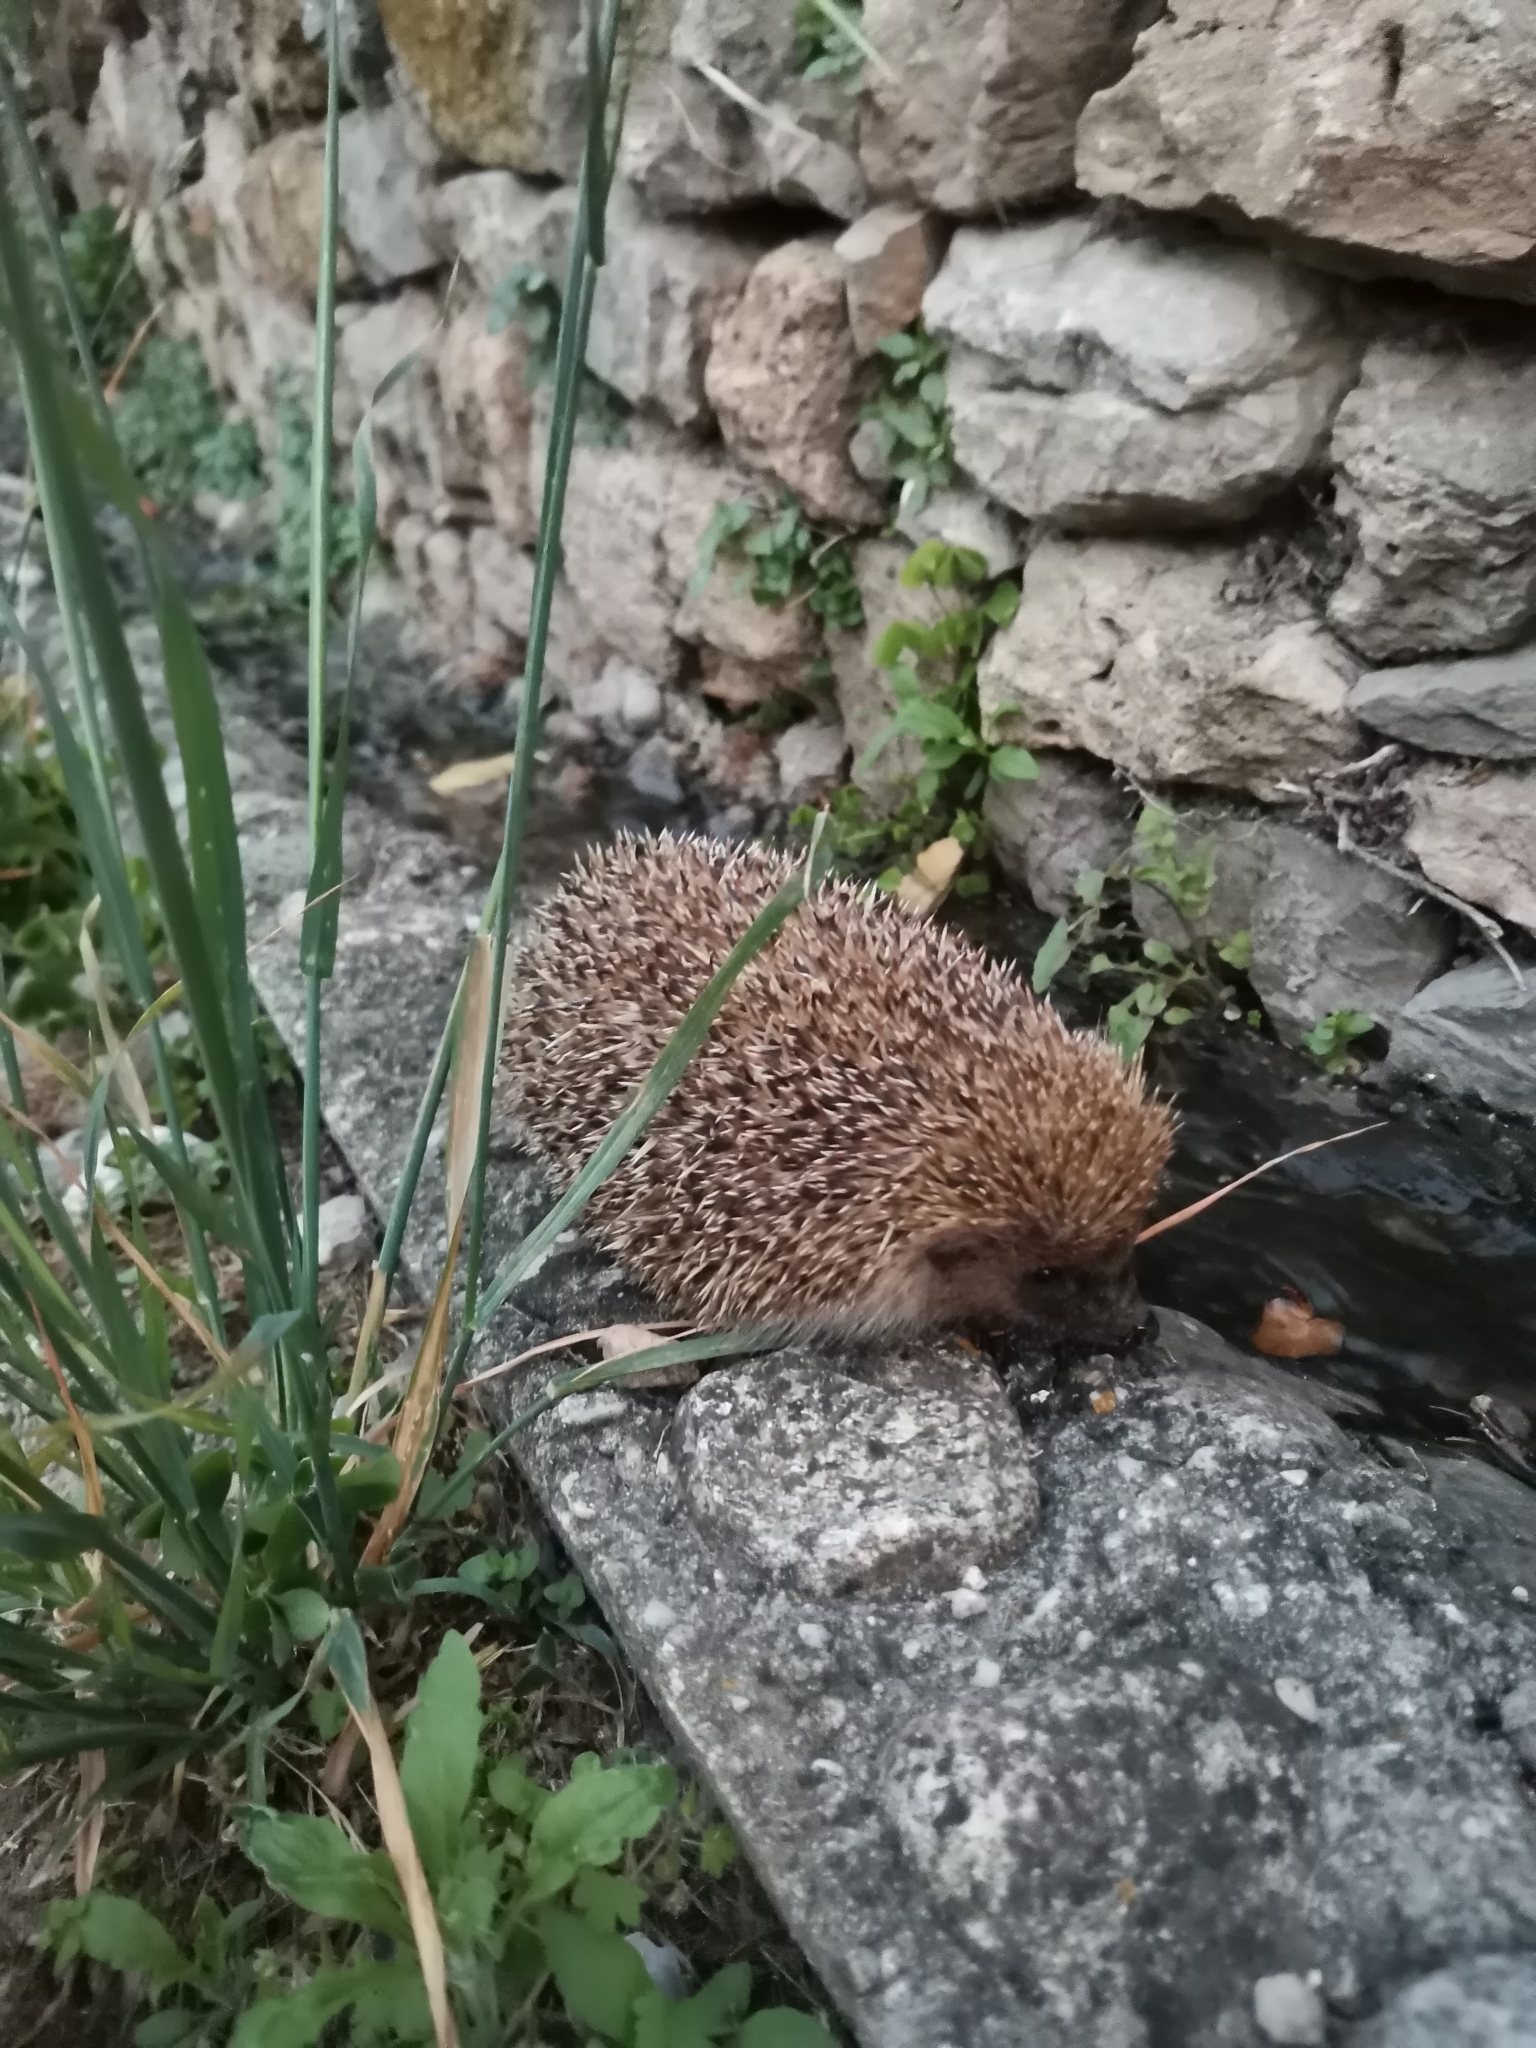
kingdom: Animalia
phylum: Chordata
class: Mammalia
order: Erinaceomorpha
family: Erinaceidae
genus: Erinaceus
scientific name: Erinaceus europaeus
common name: West european hedgehog
